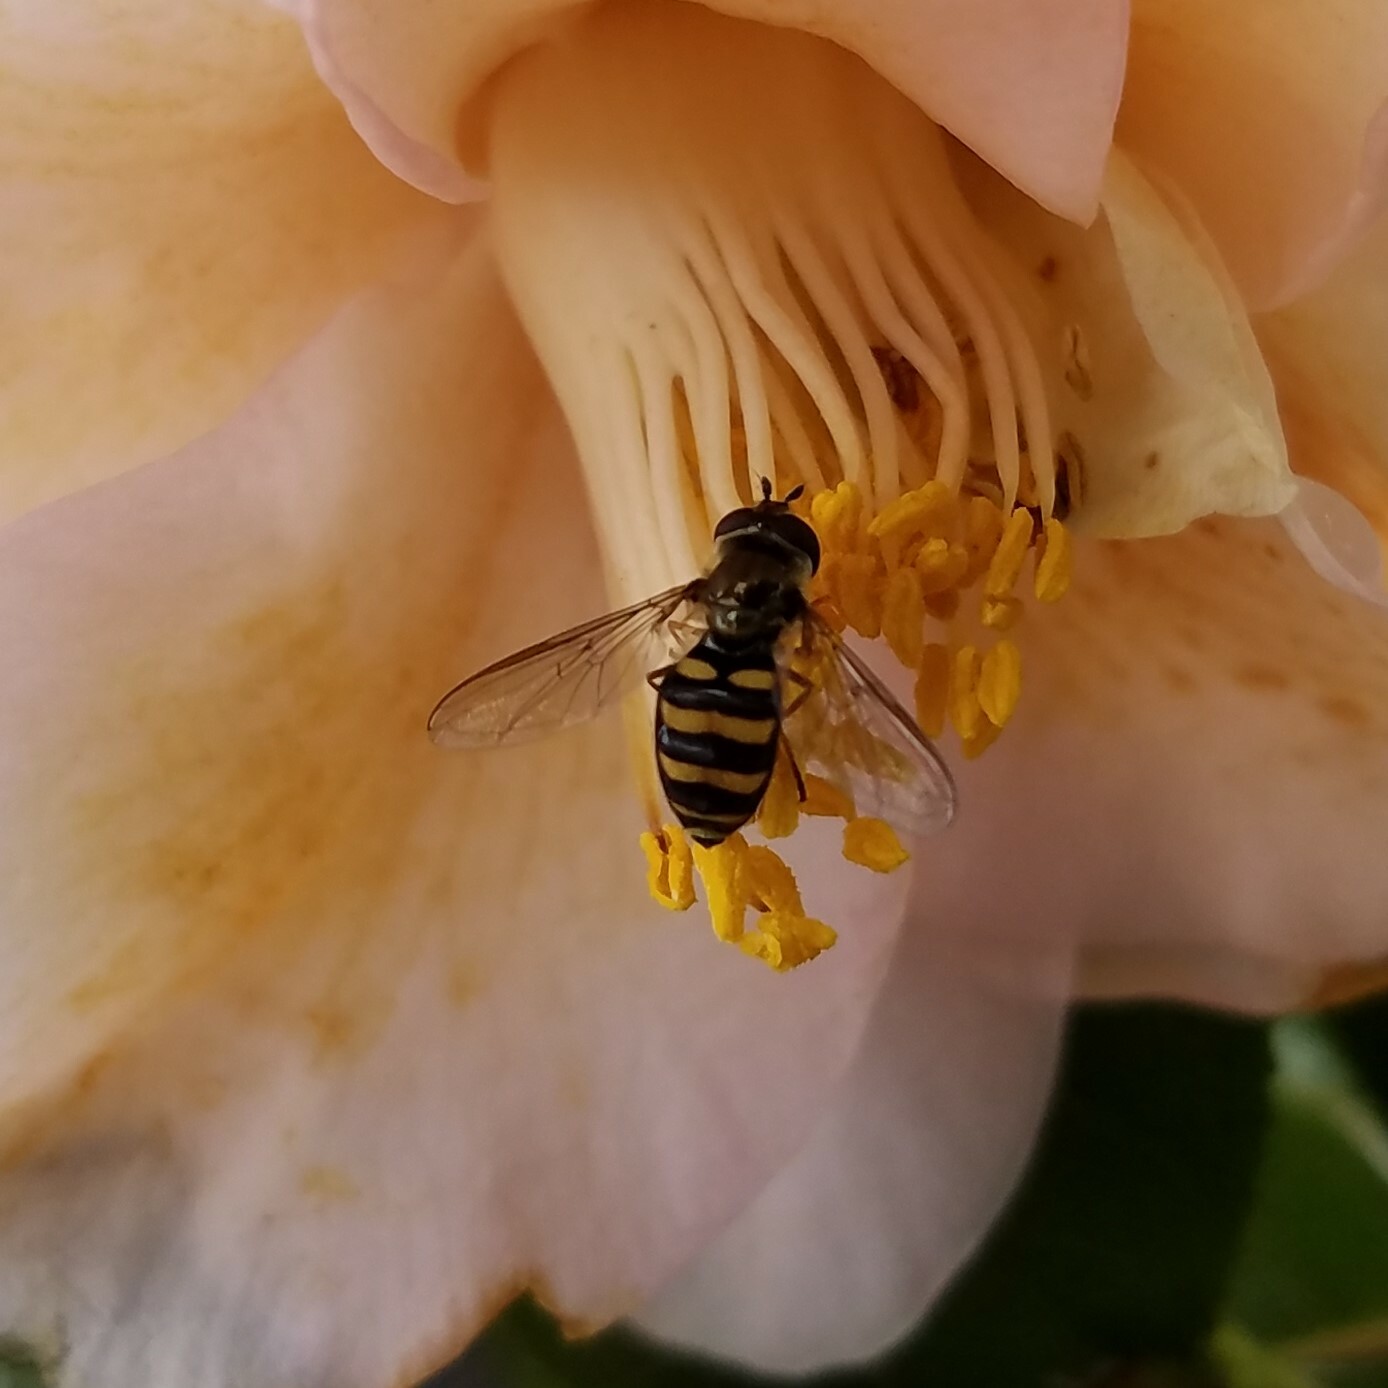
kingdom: Animalia
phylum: Arthropoda
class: Insecta
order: Diptera
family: Syrphidae
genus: Eupeodes
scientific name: Eupeodes
